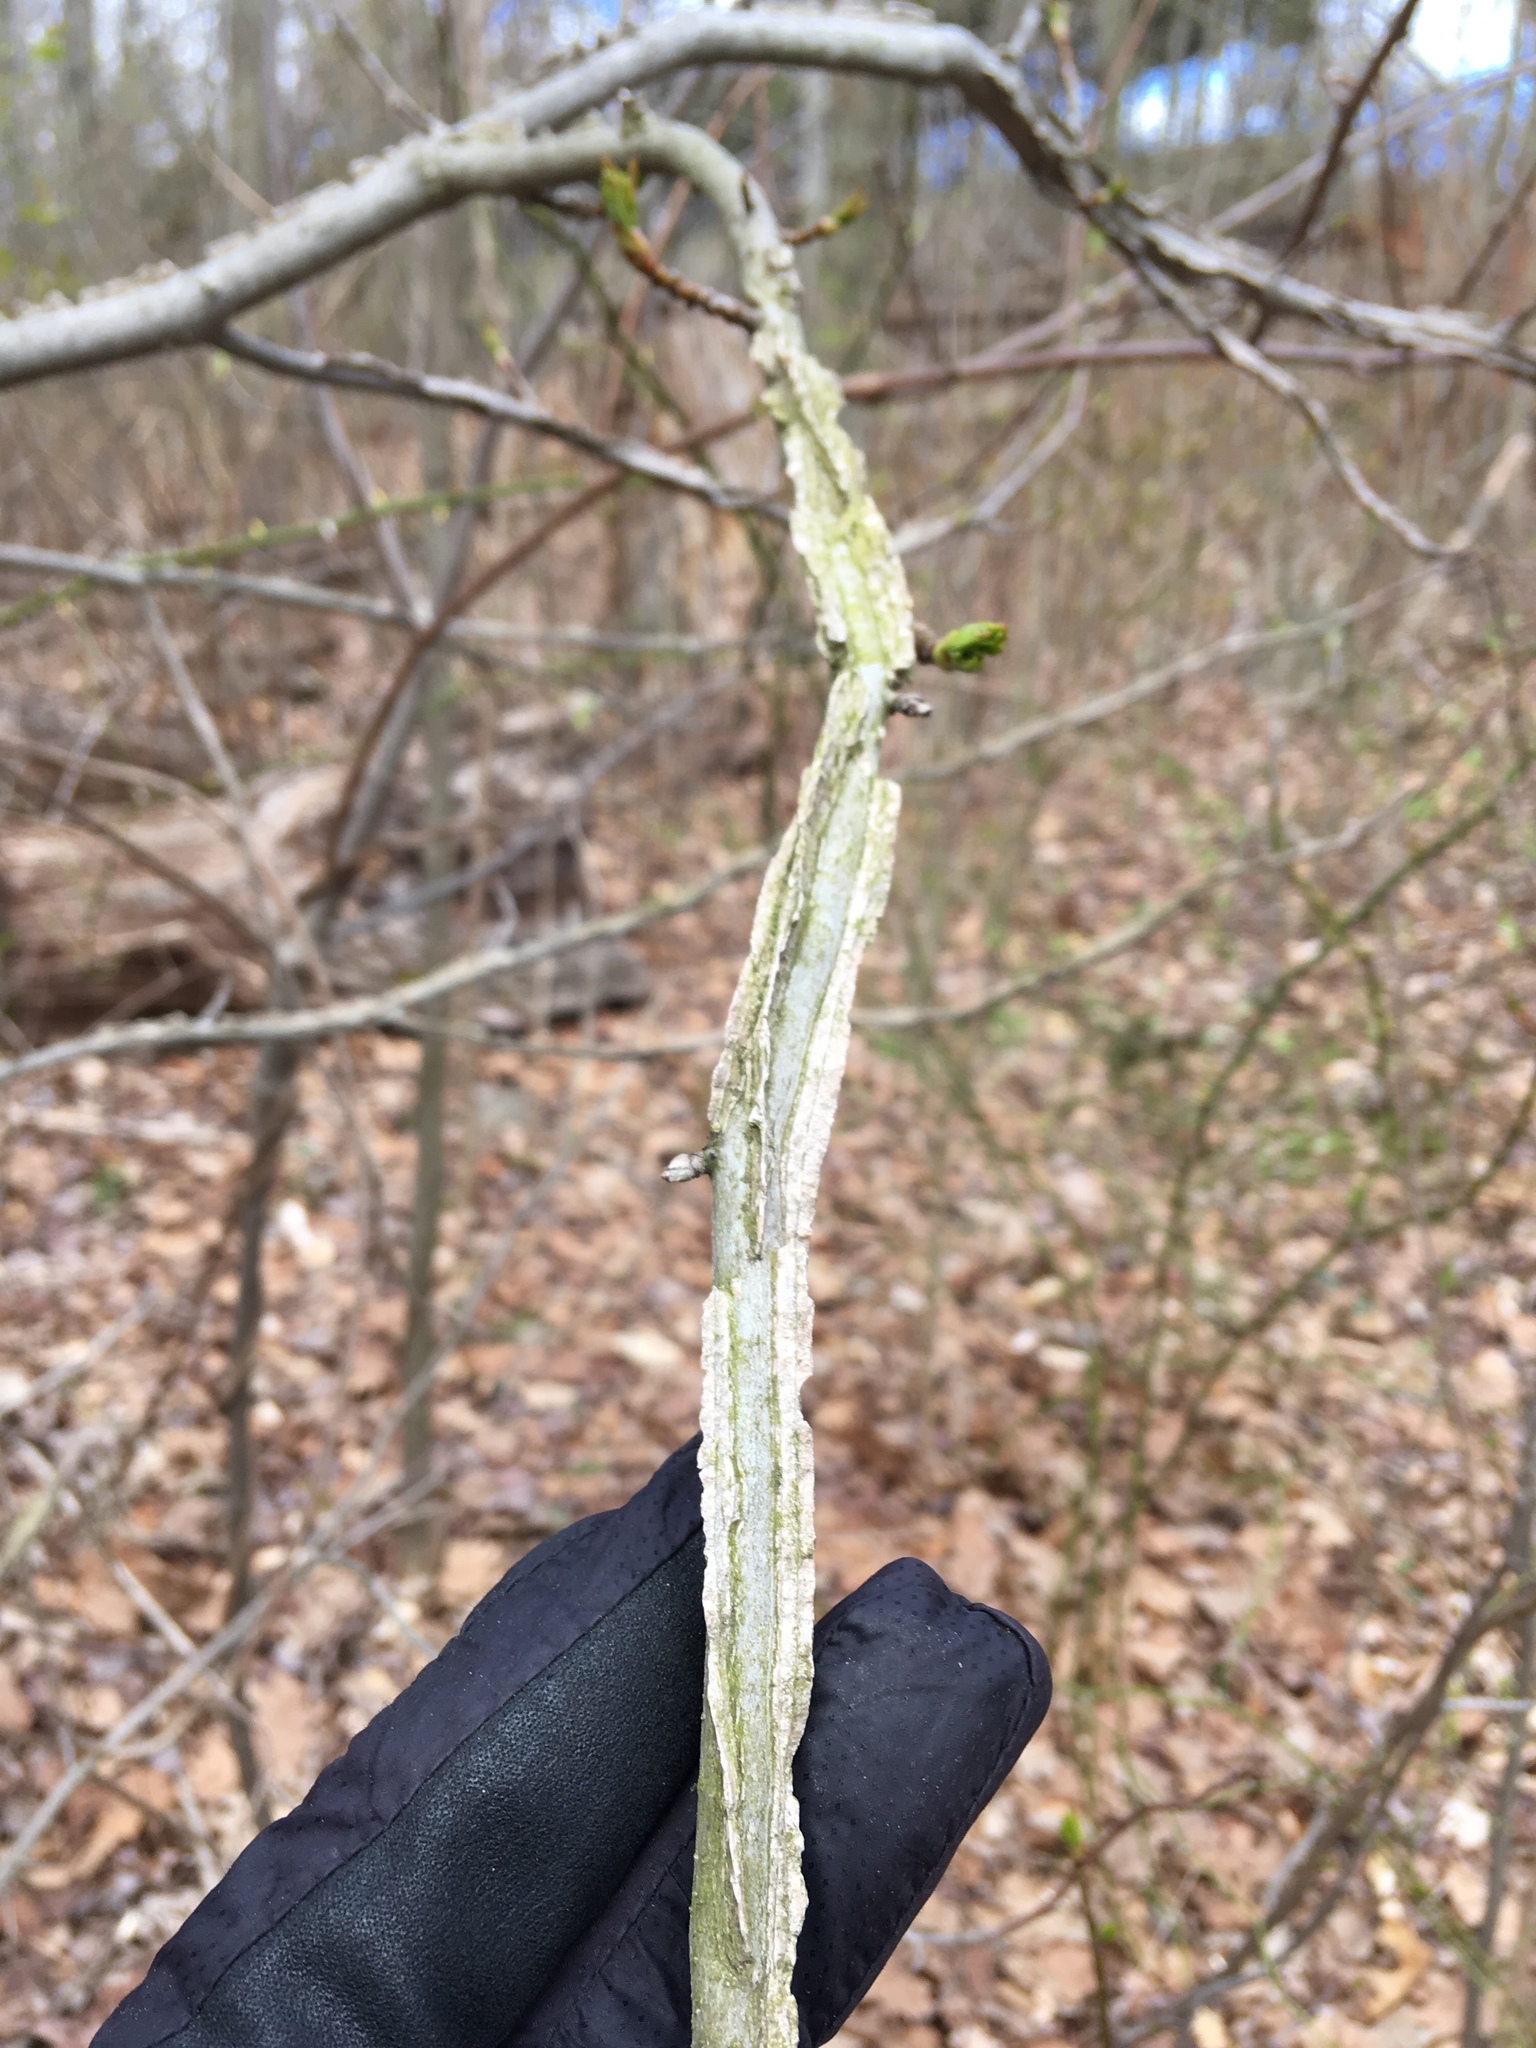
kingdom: Plantae
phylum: Tracheophyta
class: Magnoliopsida
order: Saxifragales
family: Altingiaceae
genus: Liquidambar
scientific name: Liquidambar styraciflua
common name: Sweet gum
